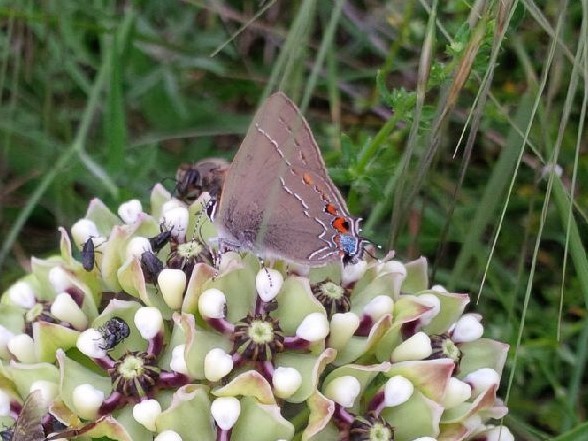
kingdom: Animalia
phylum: Arthropoda
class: Insecta
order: Lepidoptera
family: Lycaenidae
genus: Fixsenia
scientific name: Fixsenia favonius
